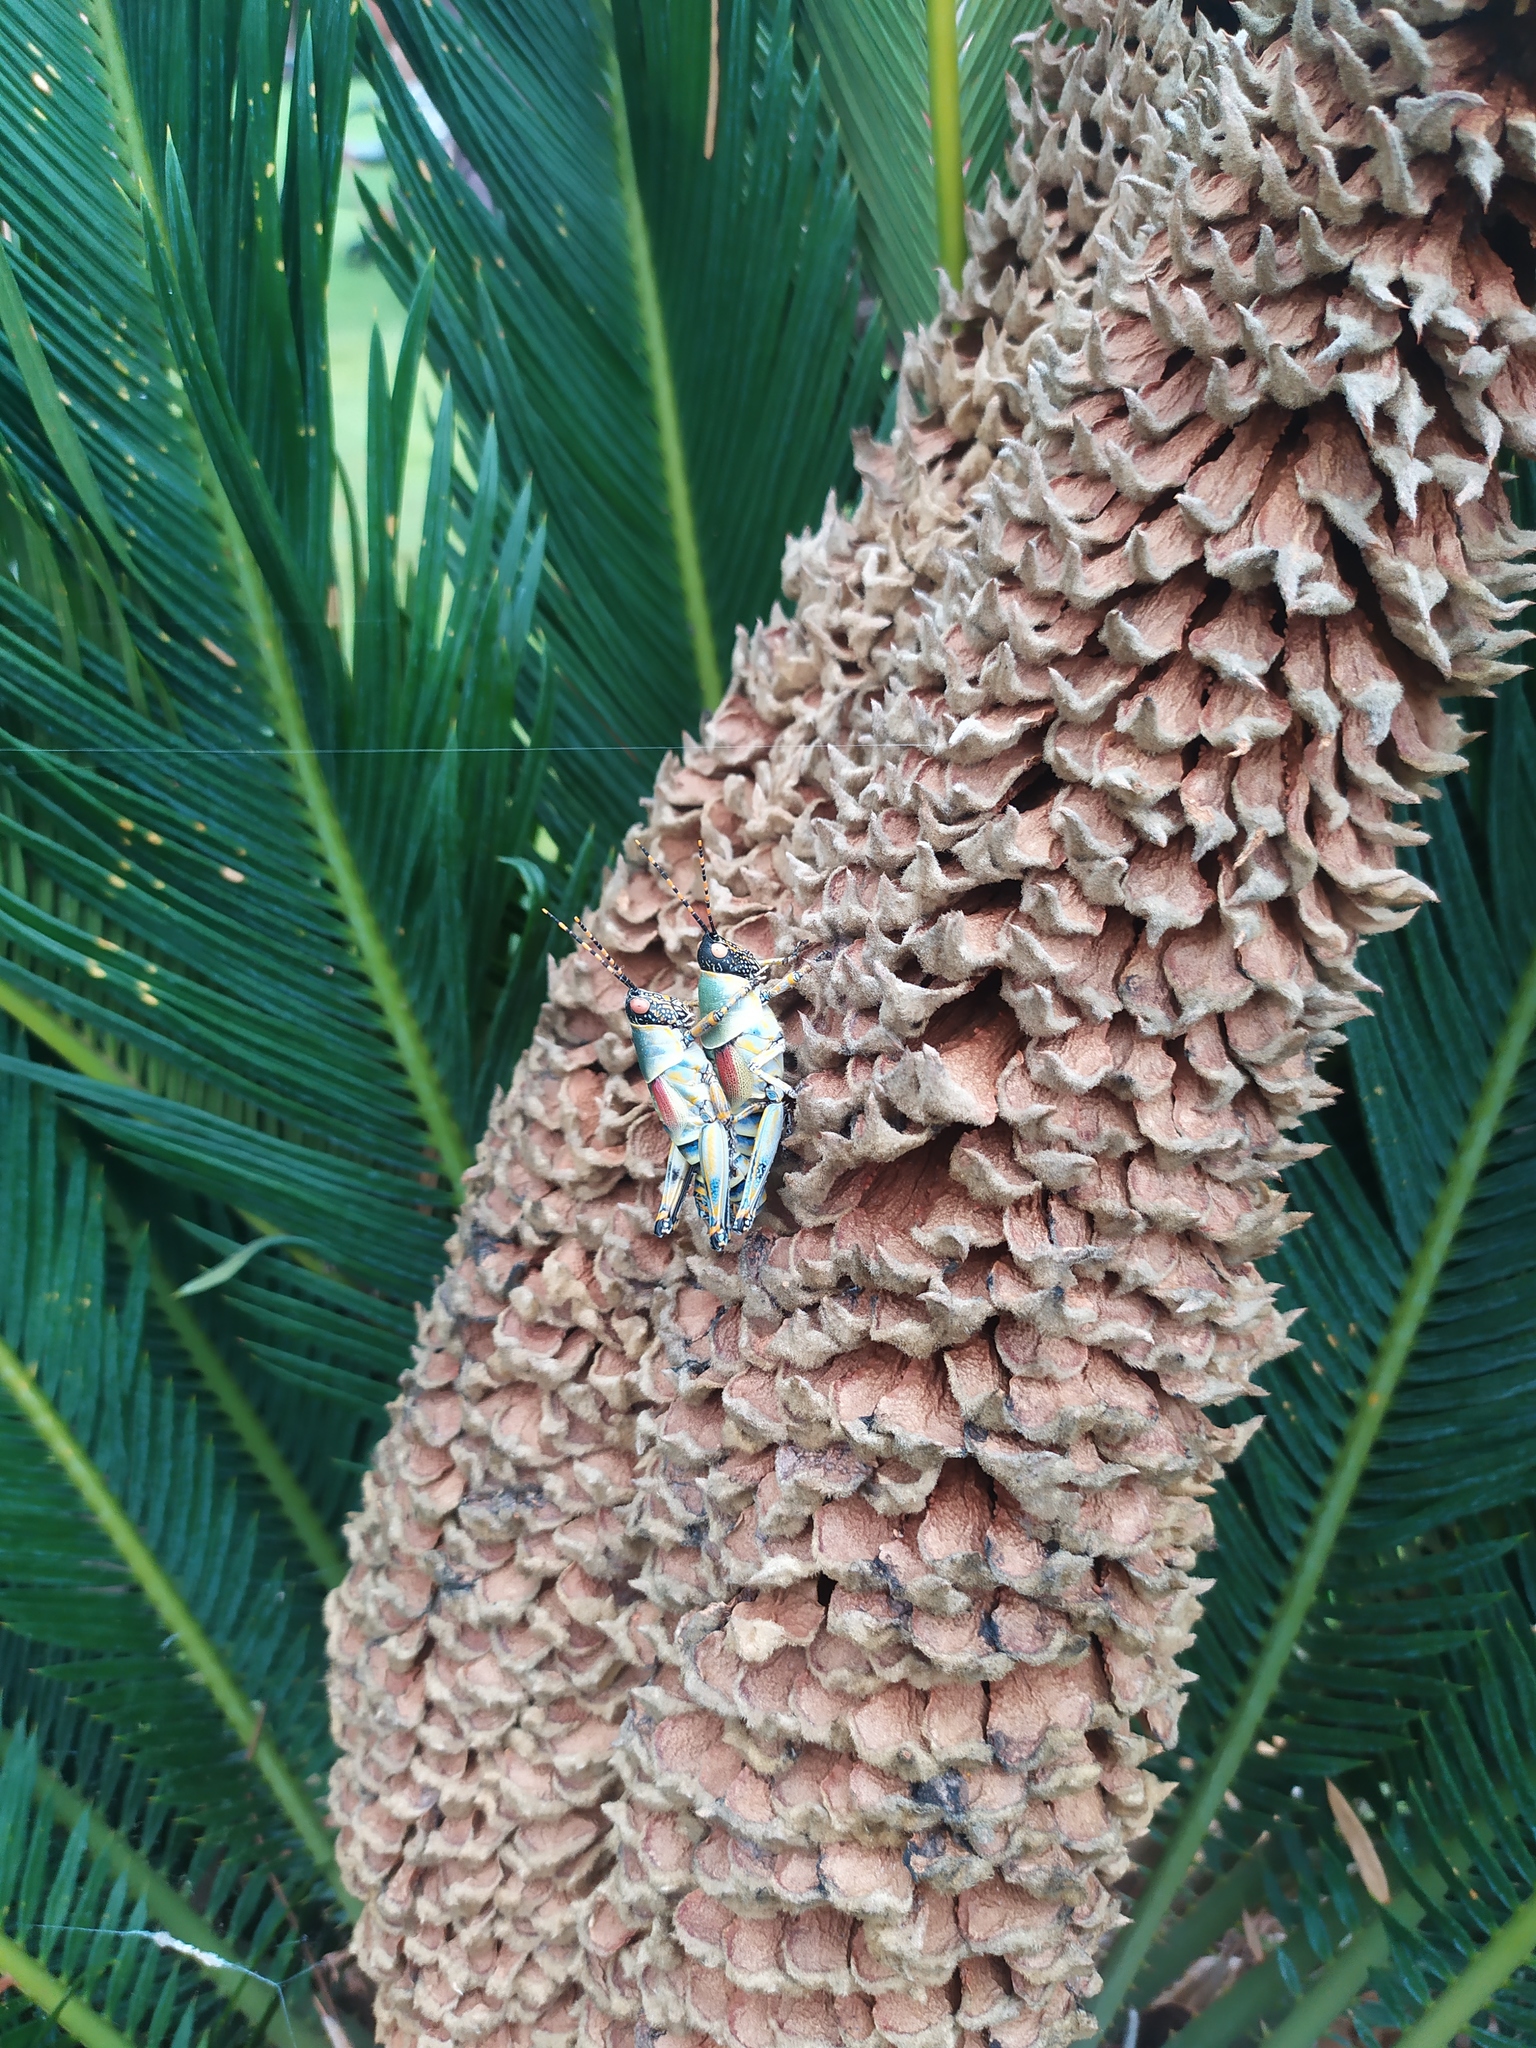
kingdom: Animalia
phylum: Arthropoda
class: Insecta
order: Orthoptera
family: Pyrgomorphidae
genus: Zonocerus
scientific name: Zonocerus elegans
